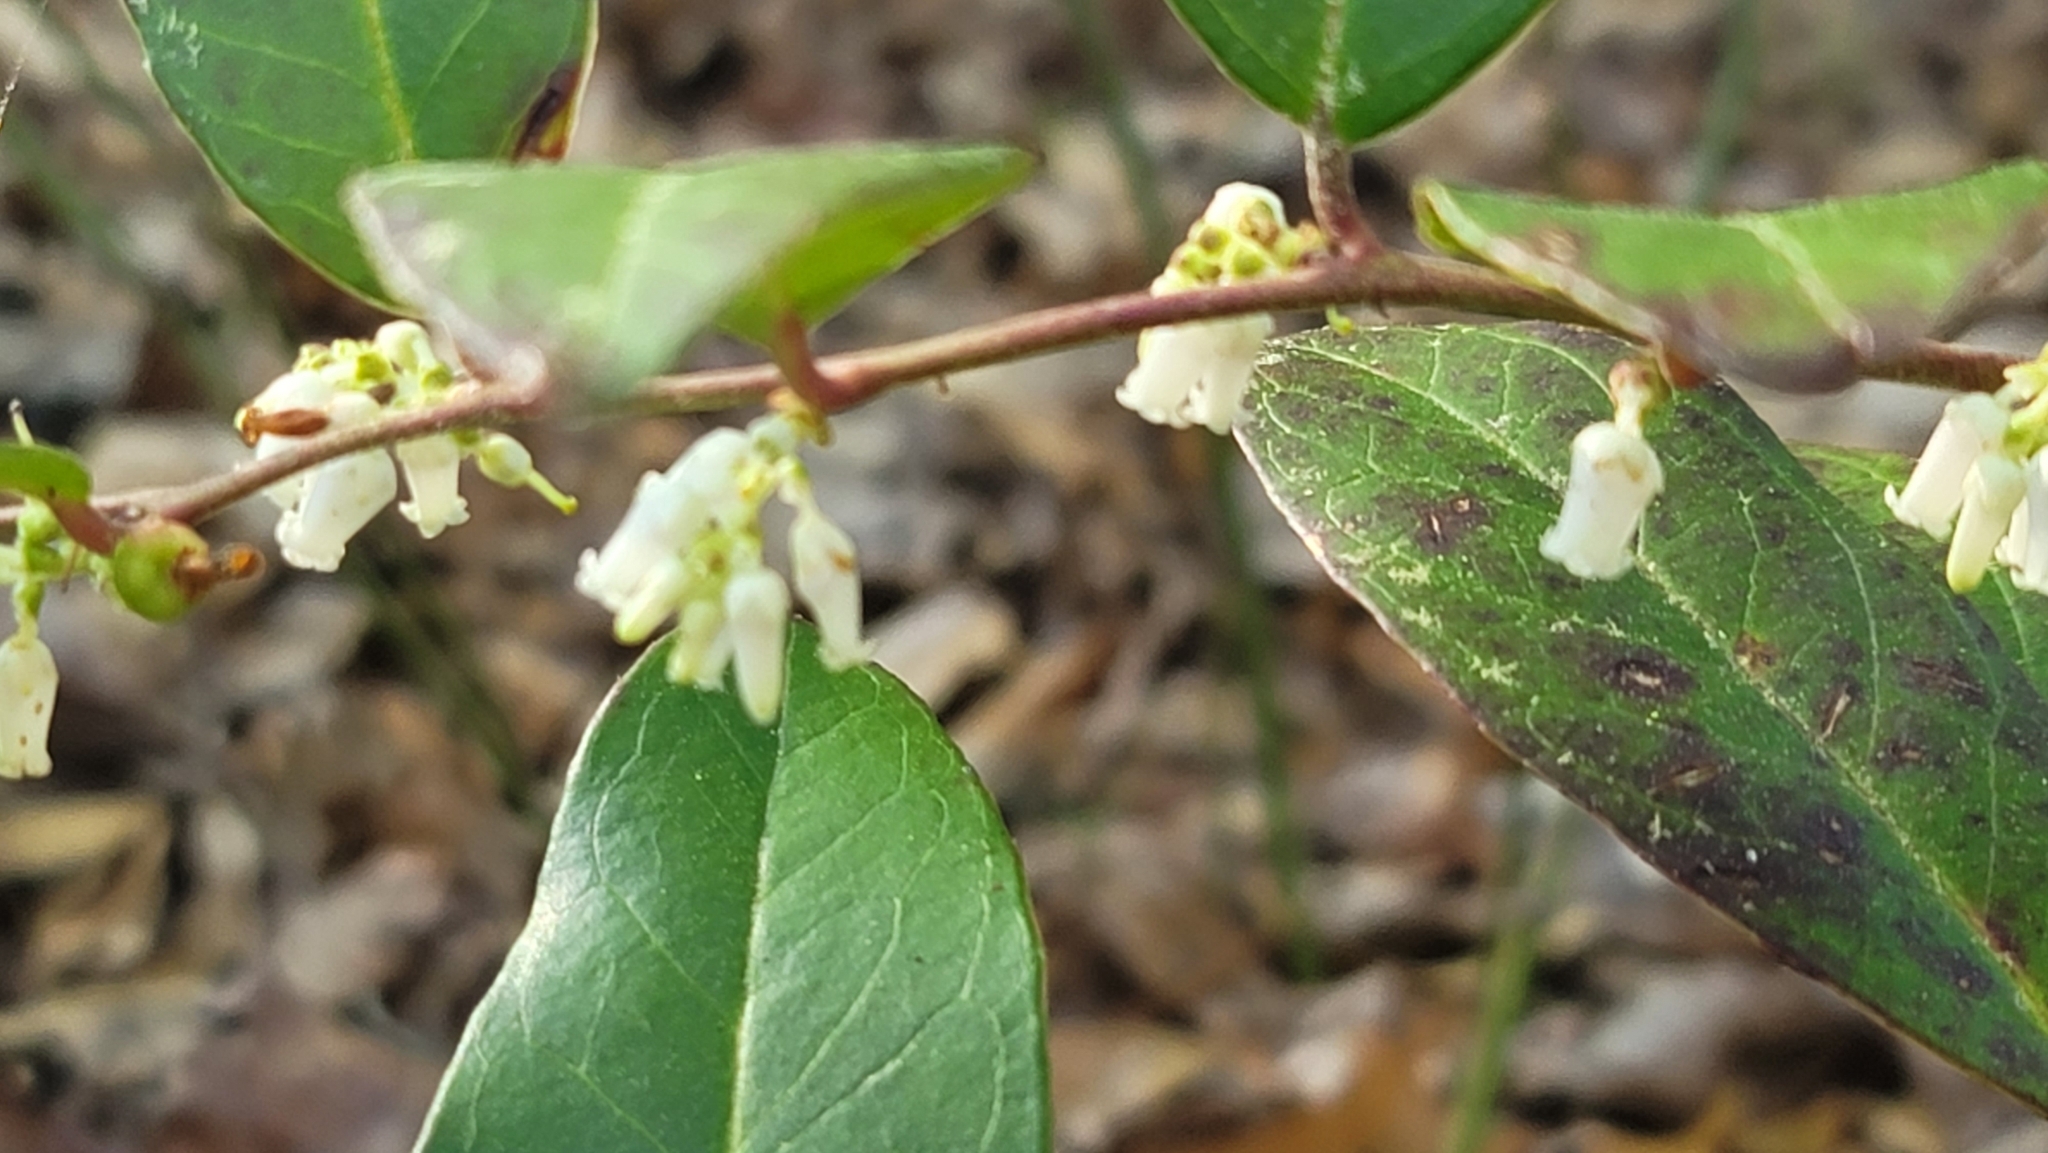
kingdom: Plantae
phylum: Tracheophyta
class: Magnoliopsida
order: Ericales
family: Ericaceae
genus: Leucothoe
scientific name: Leucothoe axillaris
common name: Leucothoe
